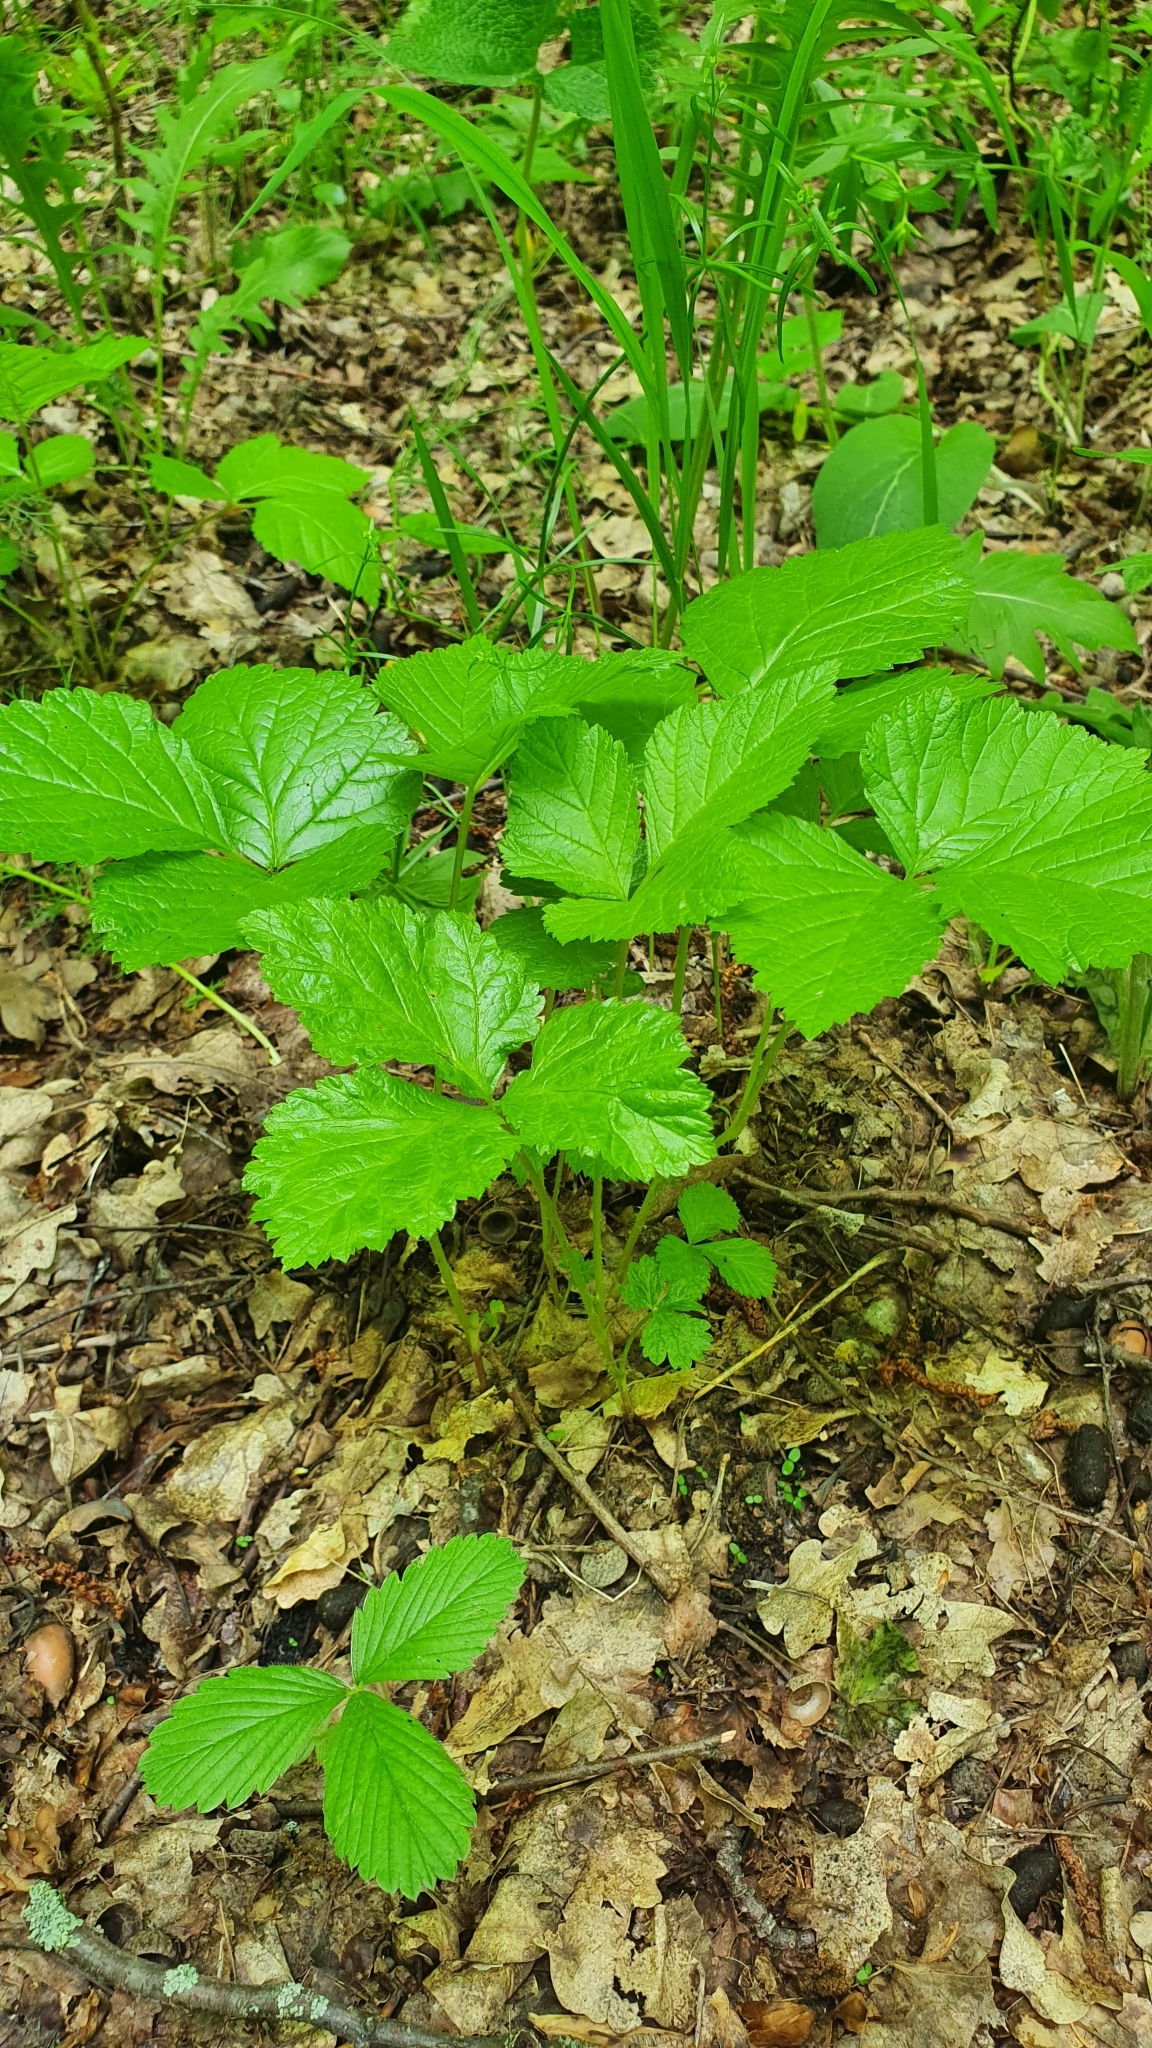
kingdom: Plantae
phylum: Tracheophyta
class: Magnoliopsida
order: Rosales
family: Rosaceae
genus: Rubus
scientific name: Rubus saxatilis
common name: Stone bramble
